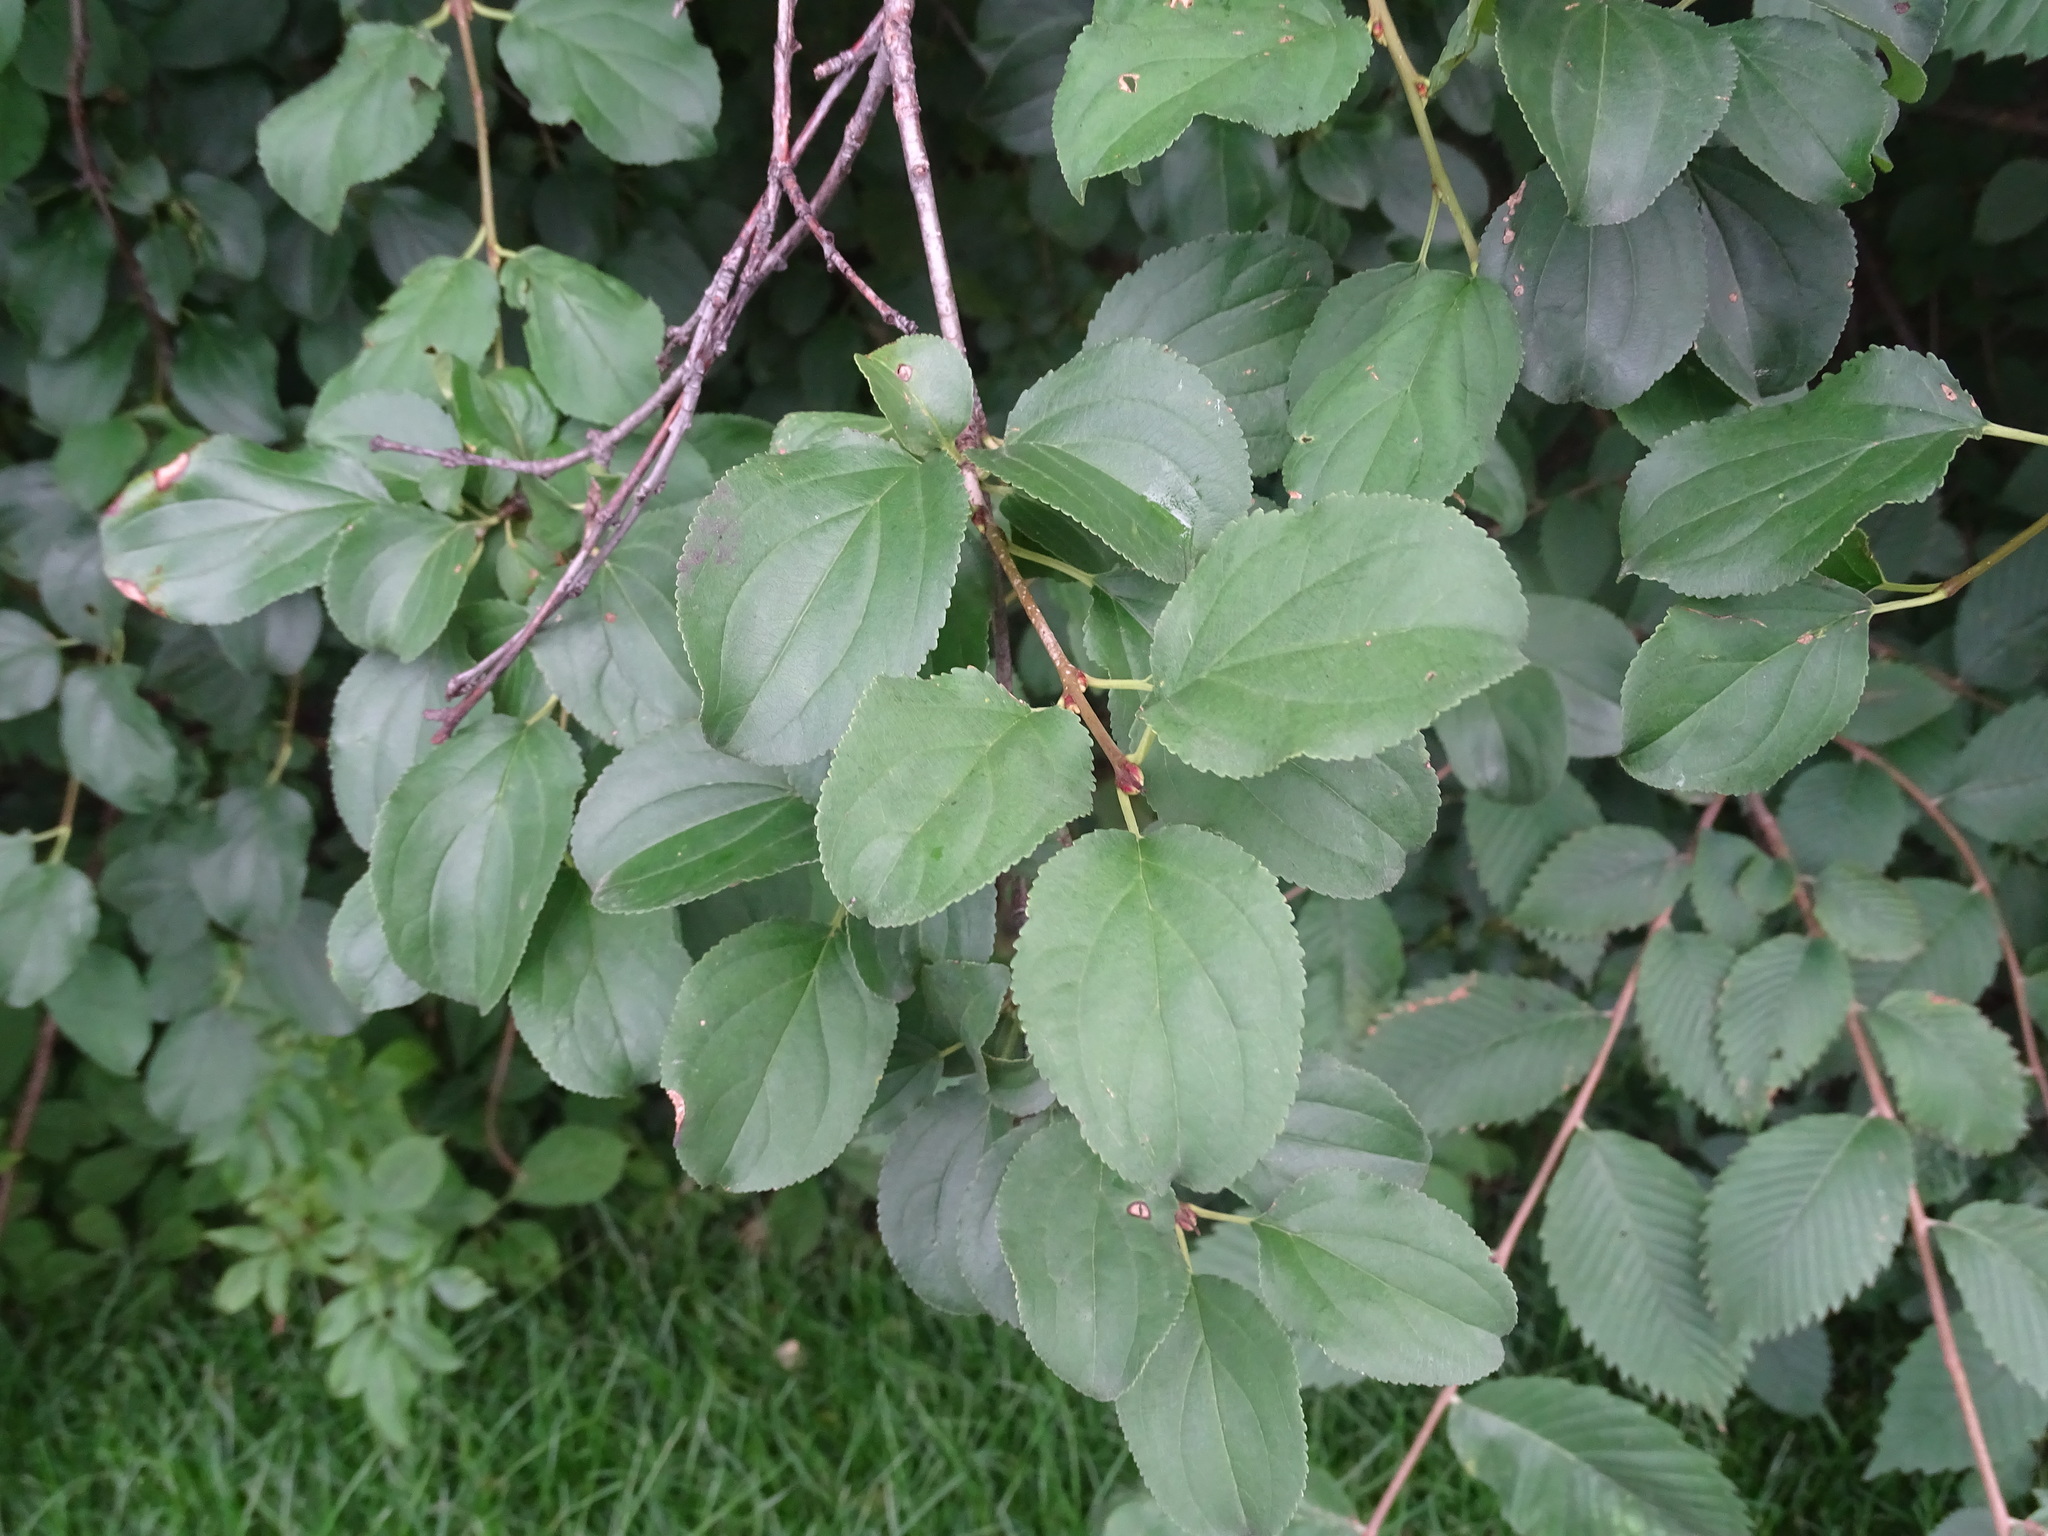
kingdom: Plantae
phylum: Tracheophyta
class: Magnoliopsida
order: Rosales
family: Rhamnaceae
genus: Rhamnus
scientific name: Rhamnus cathartica
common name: Common buckthorn
